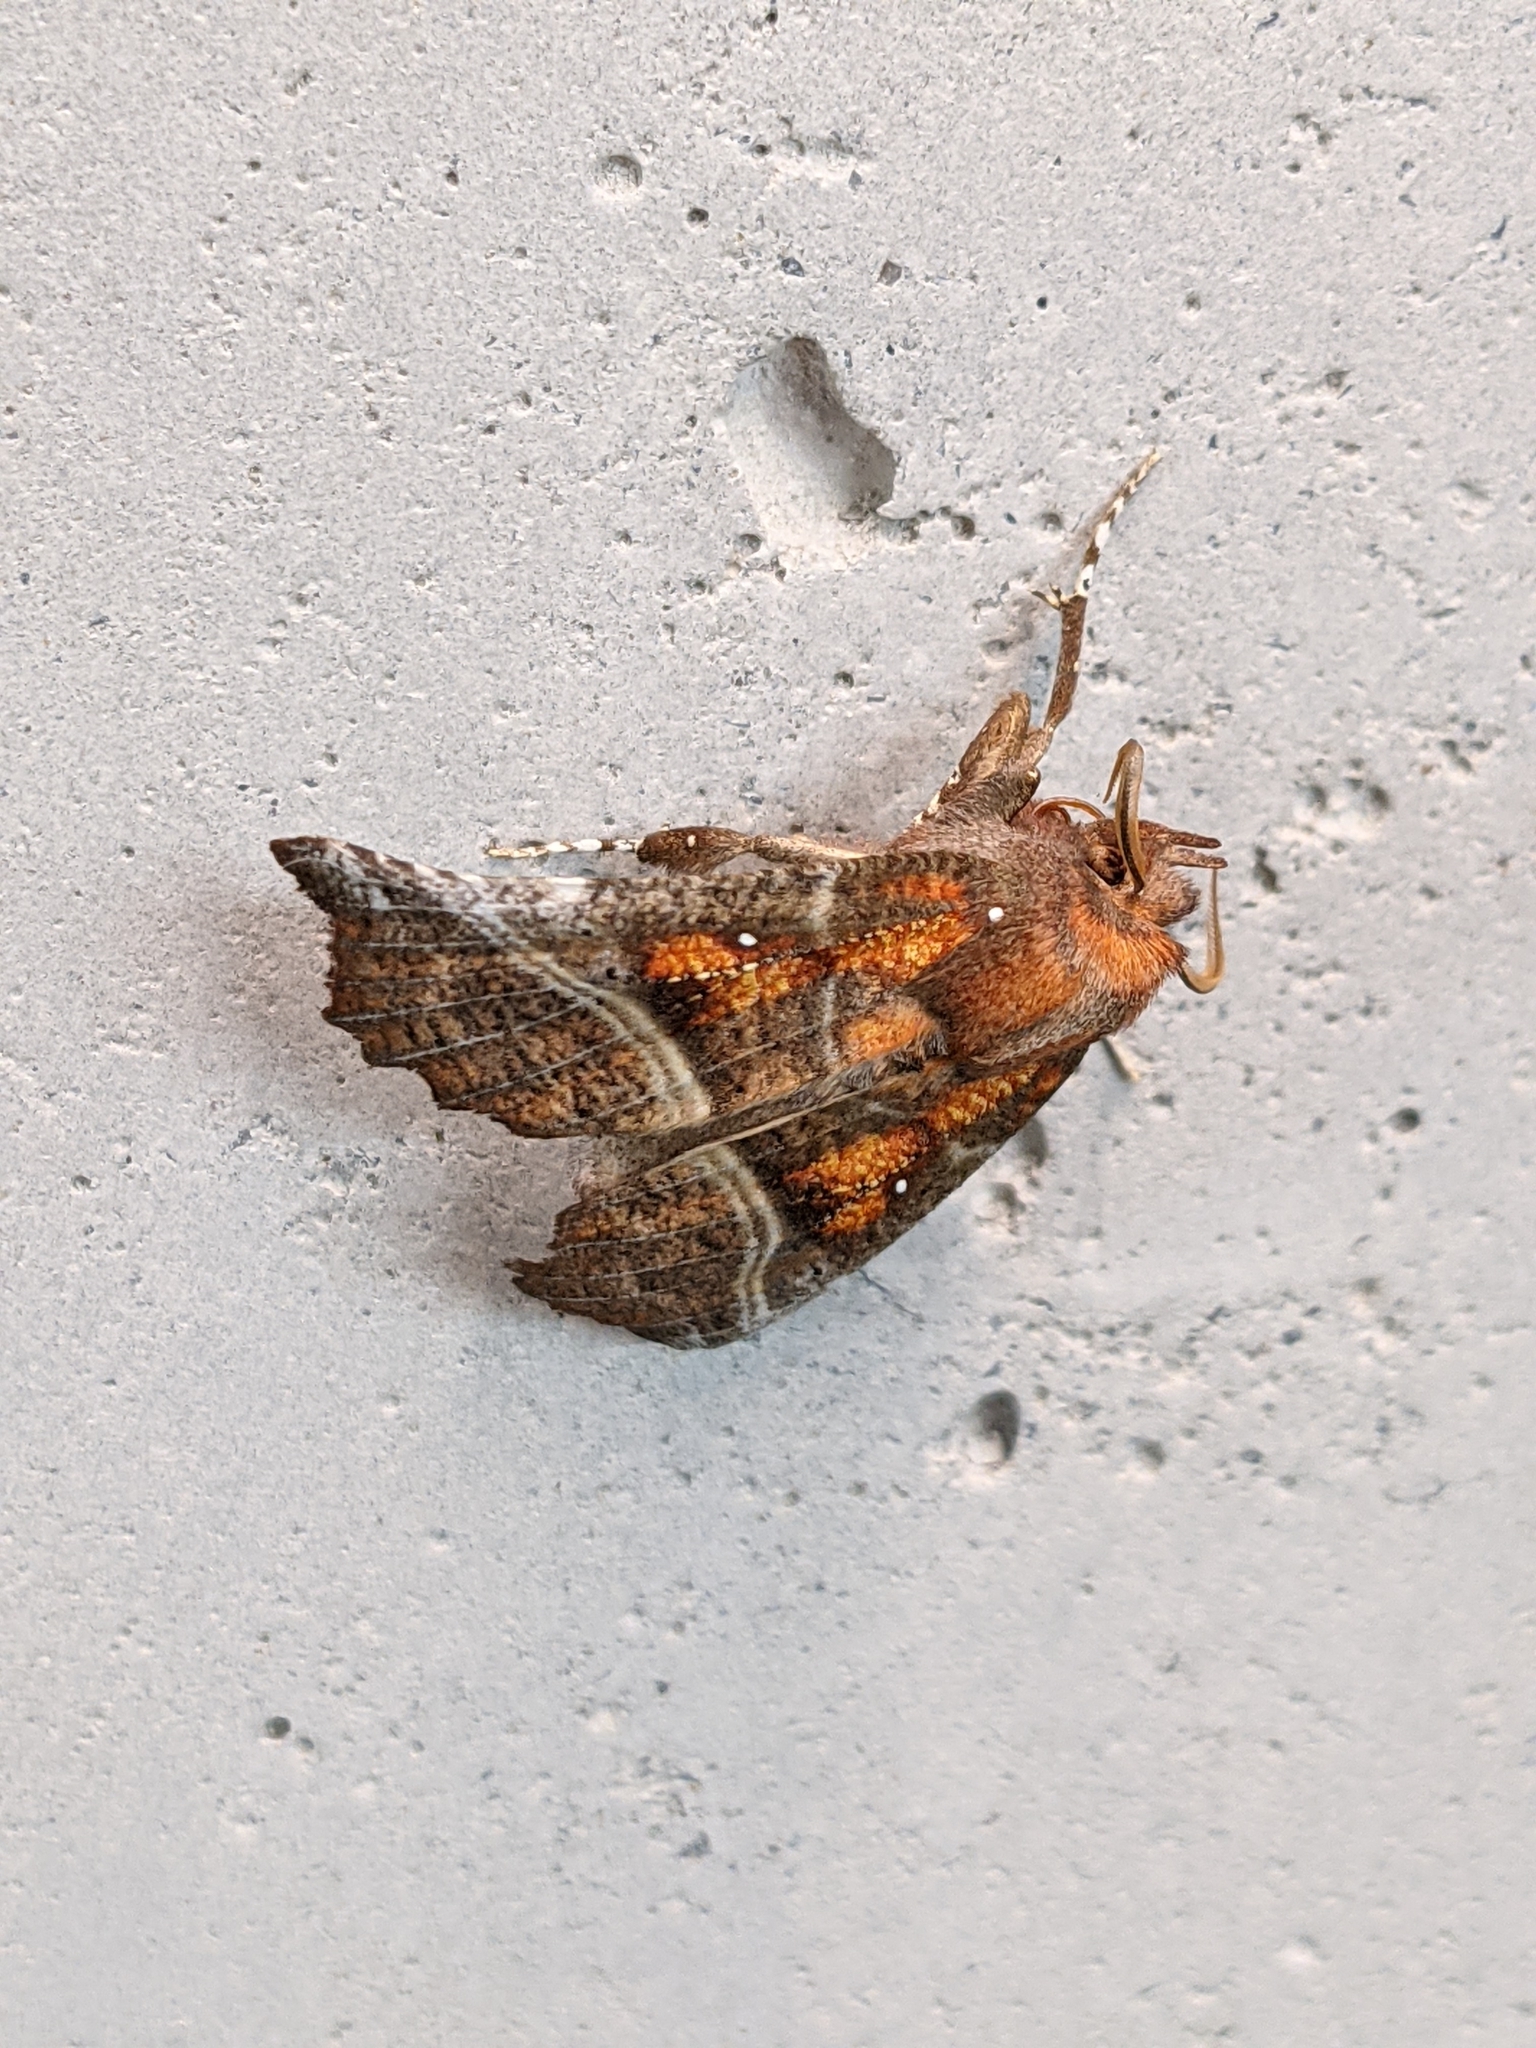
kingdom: Animalia
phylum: Arthropoda
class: Insecta
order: Lepidoptera
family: Erebidae
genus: Scoliopteryx
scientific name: Scoliopteryx libatrix
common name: Herald
